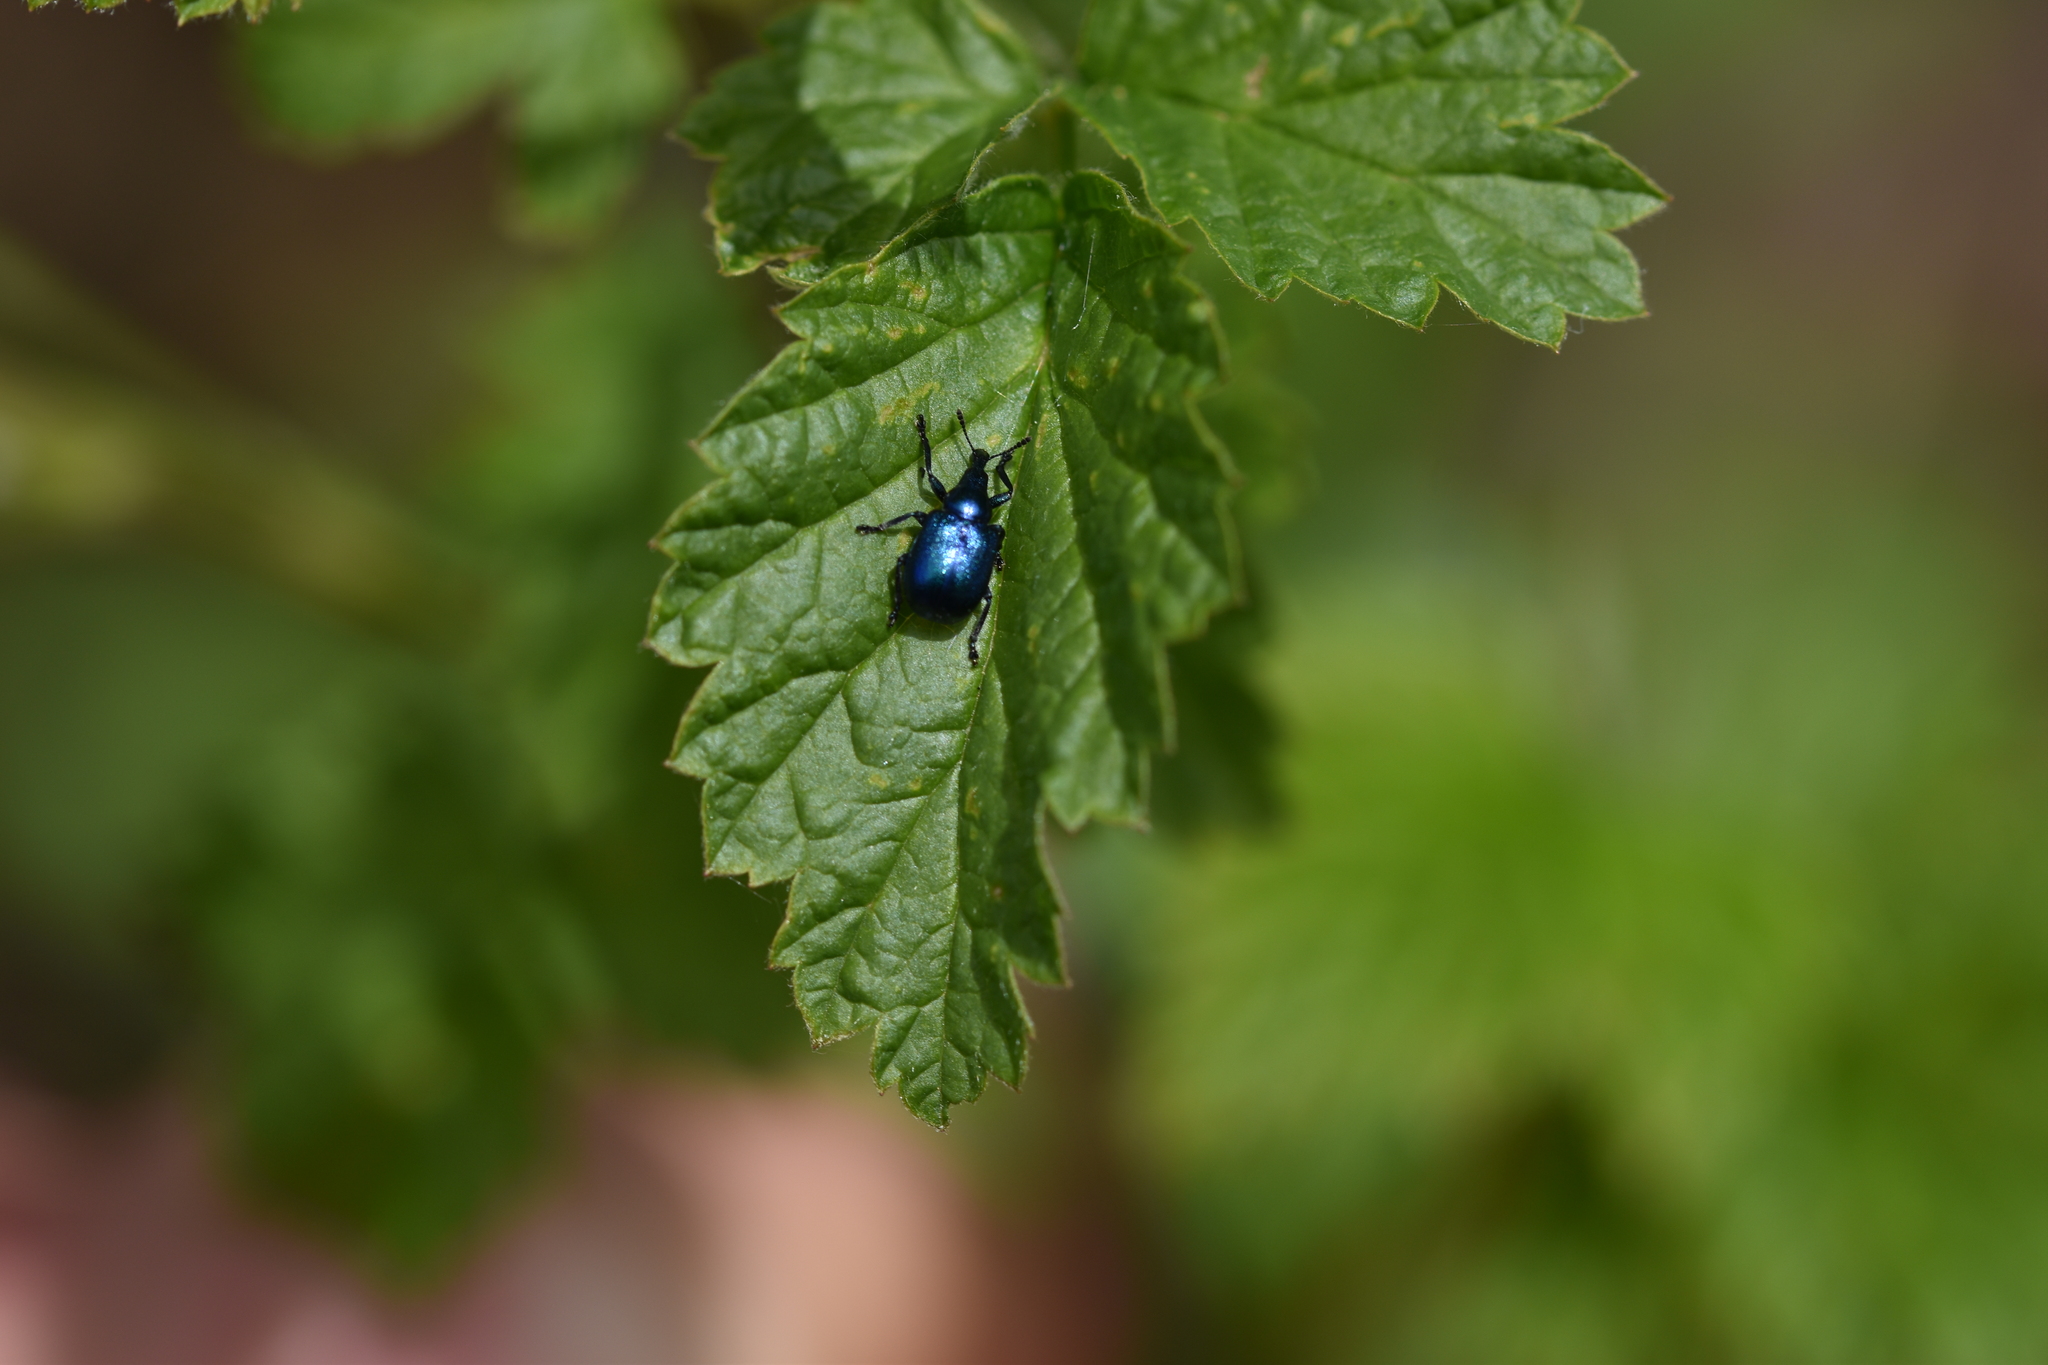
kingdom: Animalia
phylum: Arthropoda
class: Insecta
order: Coleoptera
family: Attelabidae
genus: Byctiscus
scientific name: Byctiscus betulae
